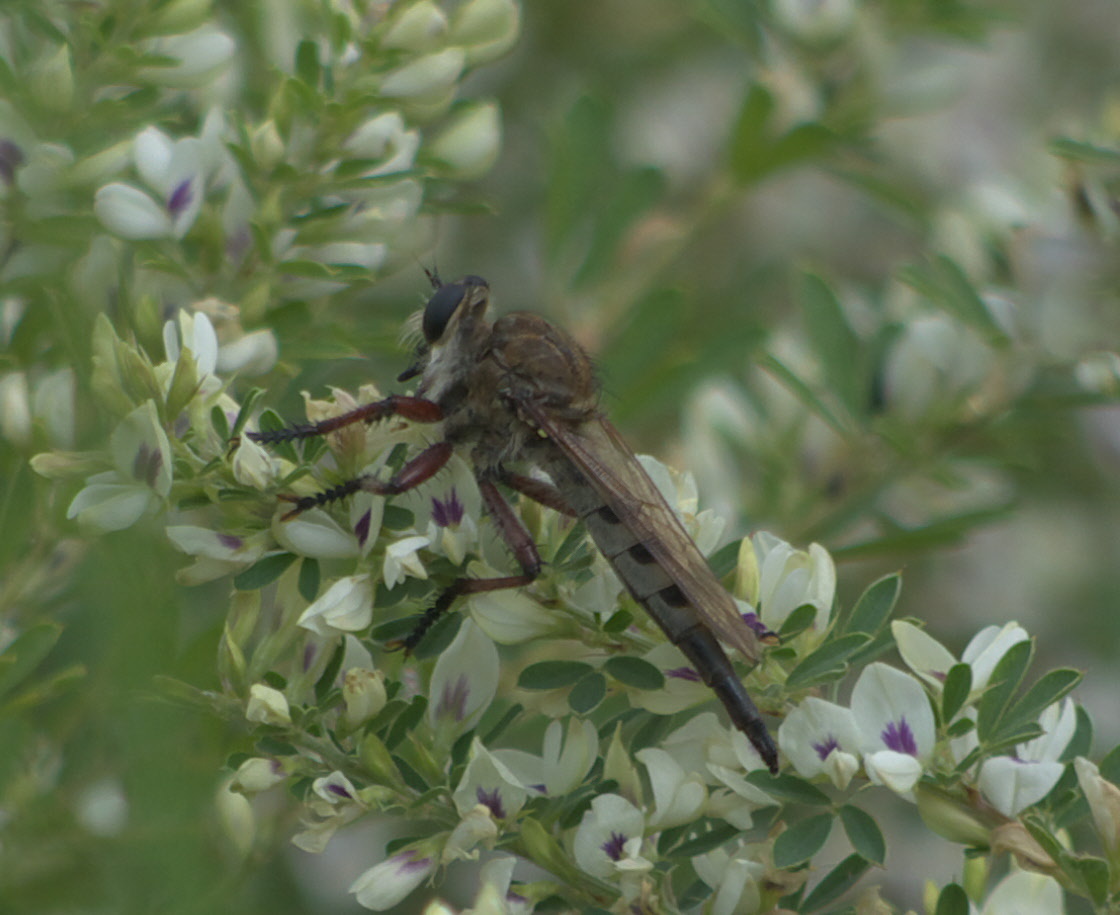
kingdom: Animalia
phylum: Arthropoda
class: Insecta
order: Diptera
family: Asilidae
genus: Promachus
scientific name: Promachus hinei
